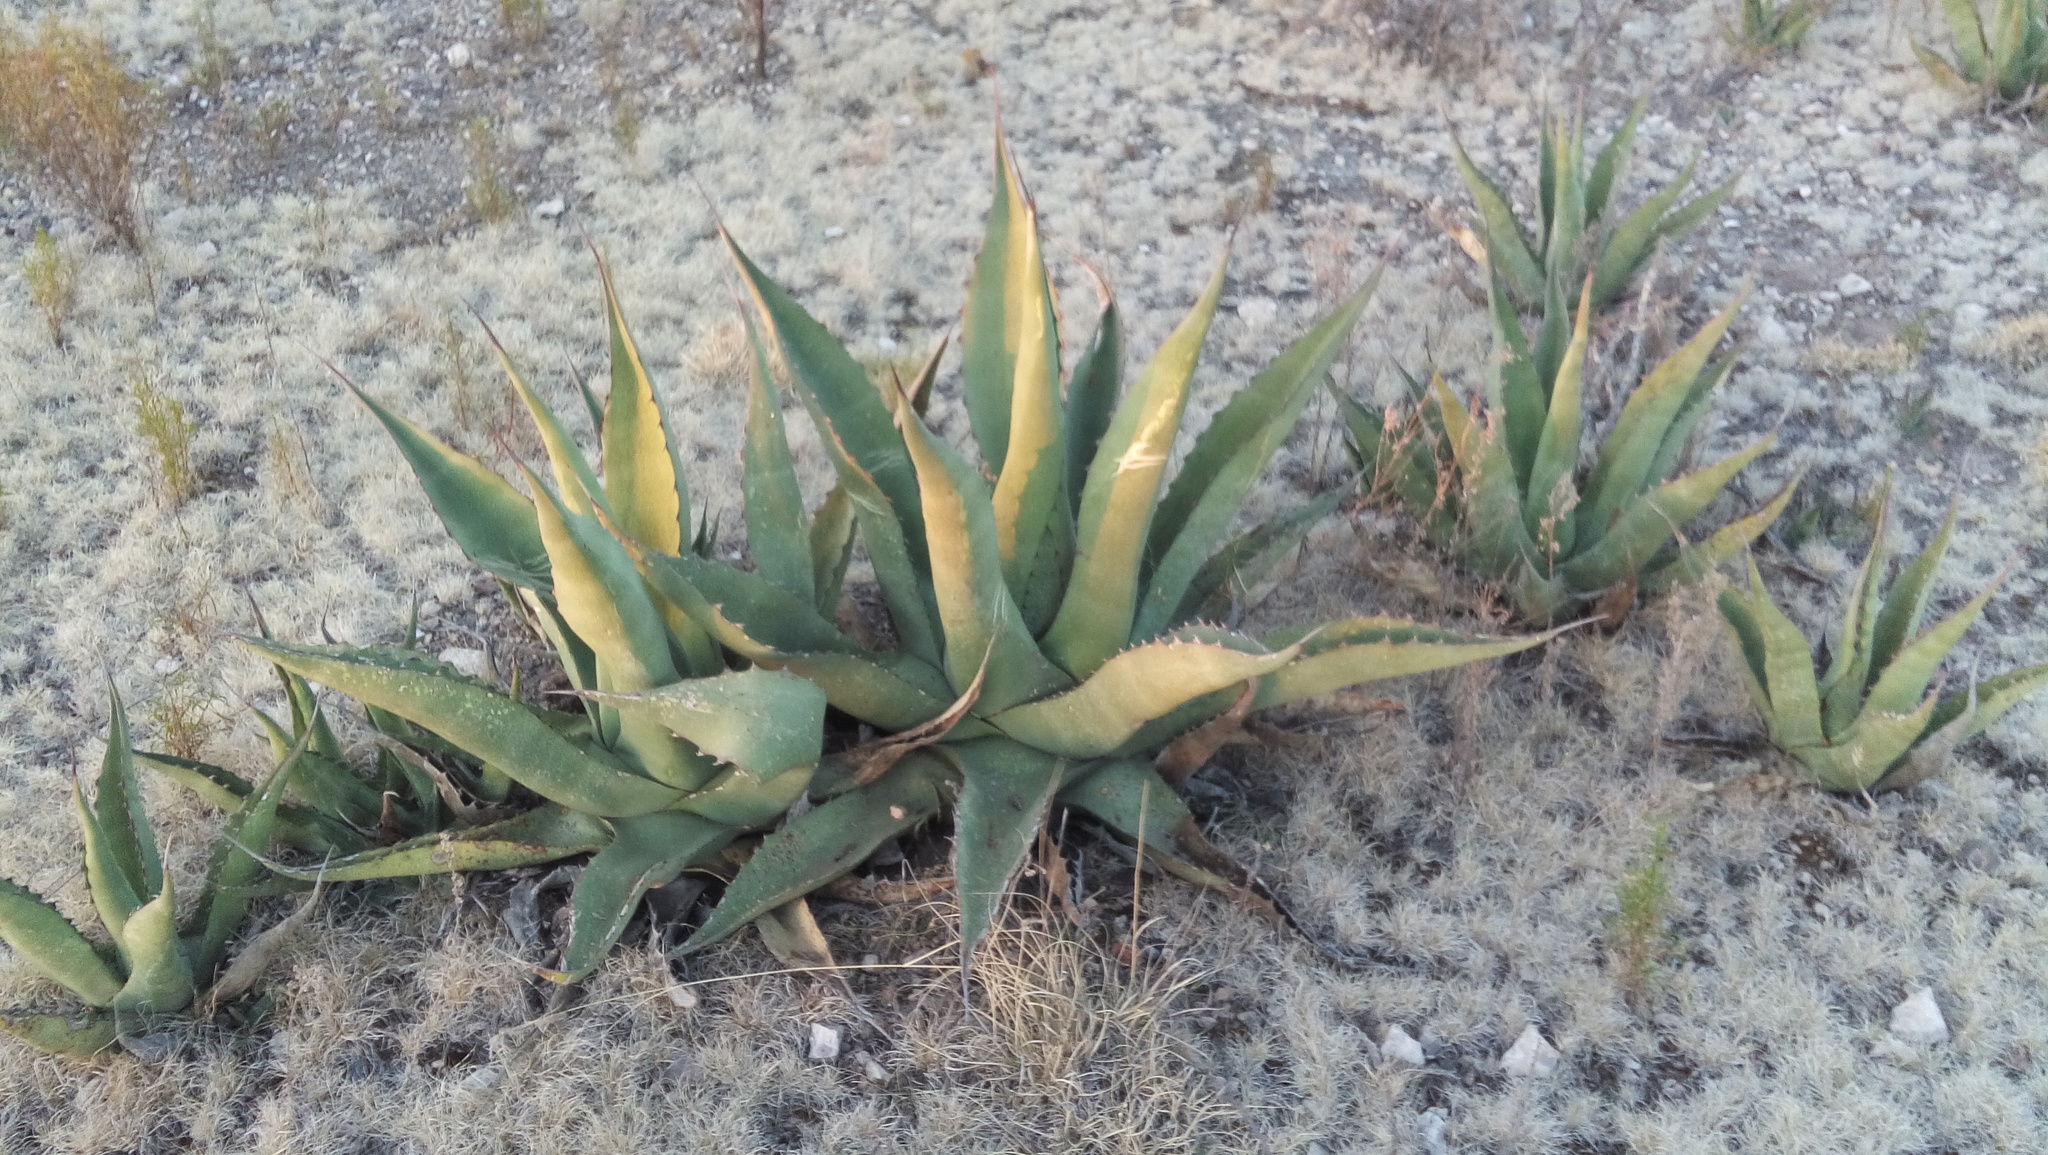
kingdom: Plantae
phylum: Tracheophyta
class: Liliopsida
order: Asparagales
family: Asparagaceae
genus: Agave
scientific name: Agave asperrima
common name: Rough agave
